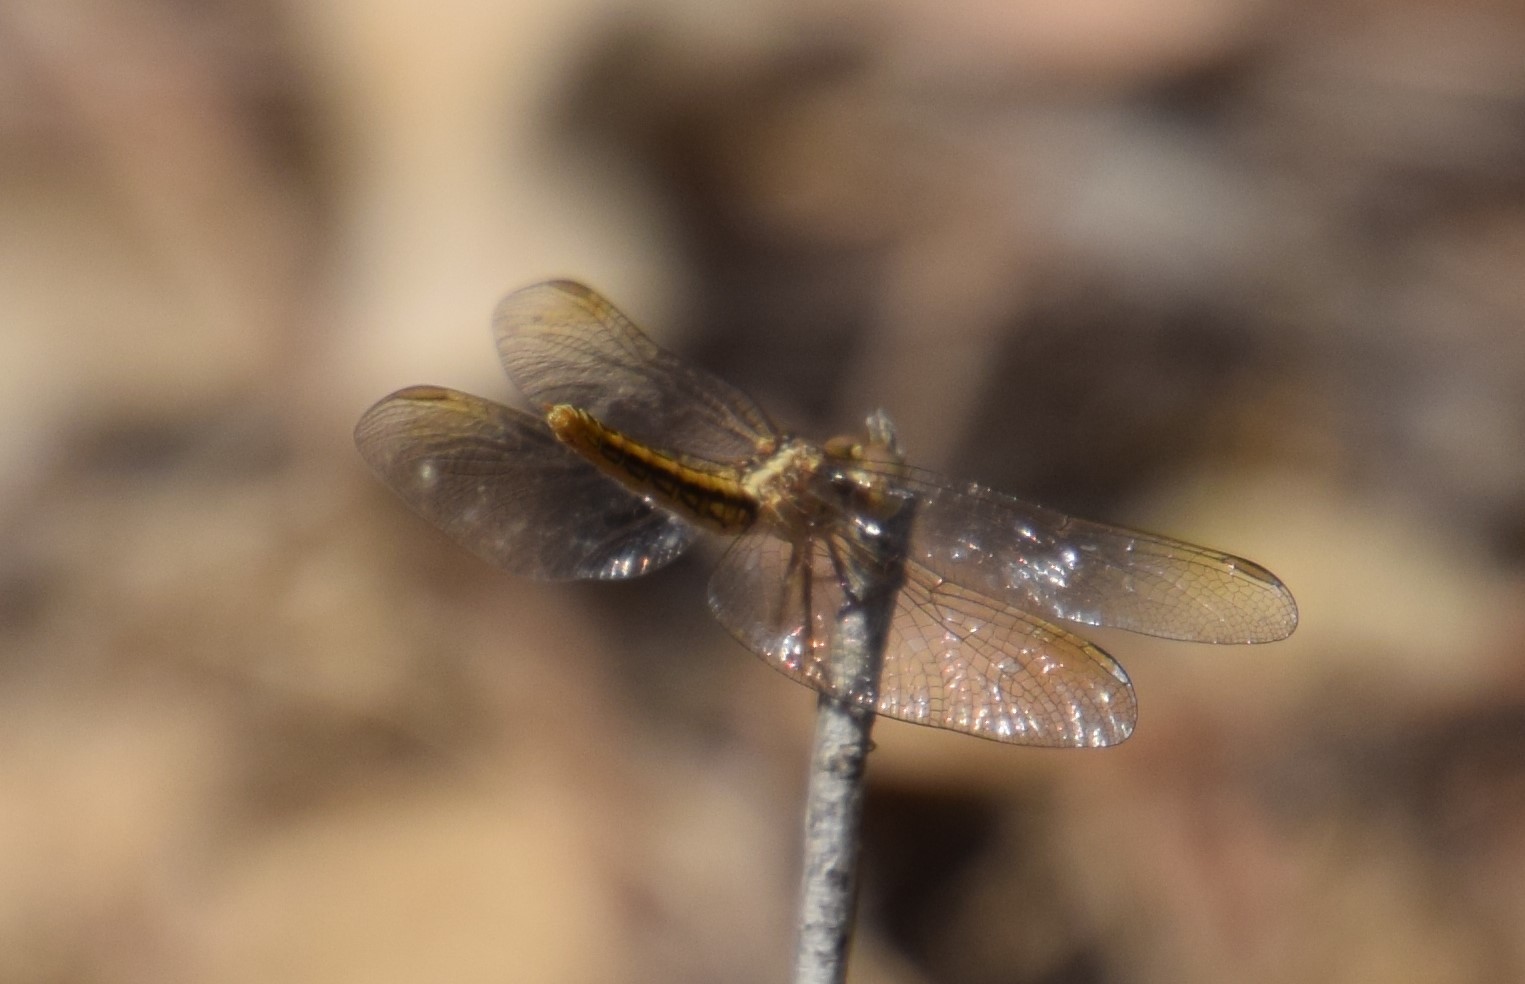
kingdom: Animalia
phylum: Arthropoda
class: Insecta
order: Odonata
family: Libellulidae
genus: Diplacodes
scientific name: Diplacodes haematodes
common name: Scarlet percher
